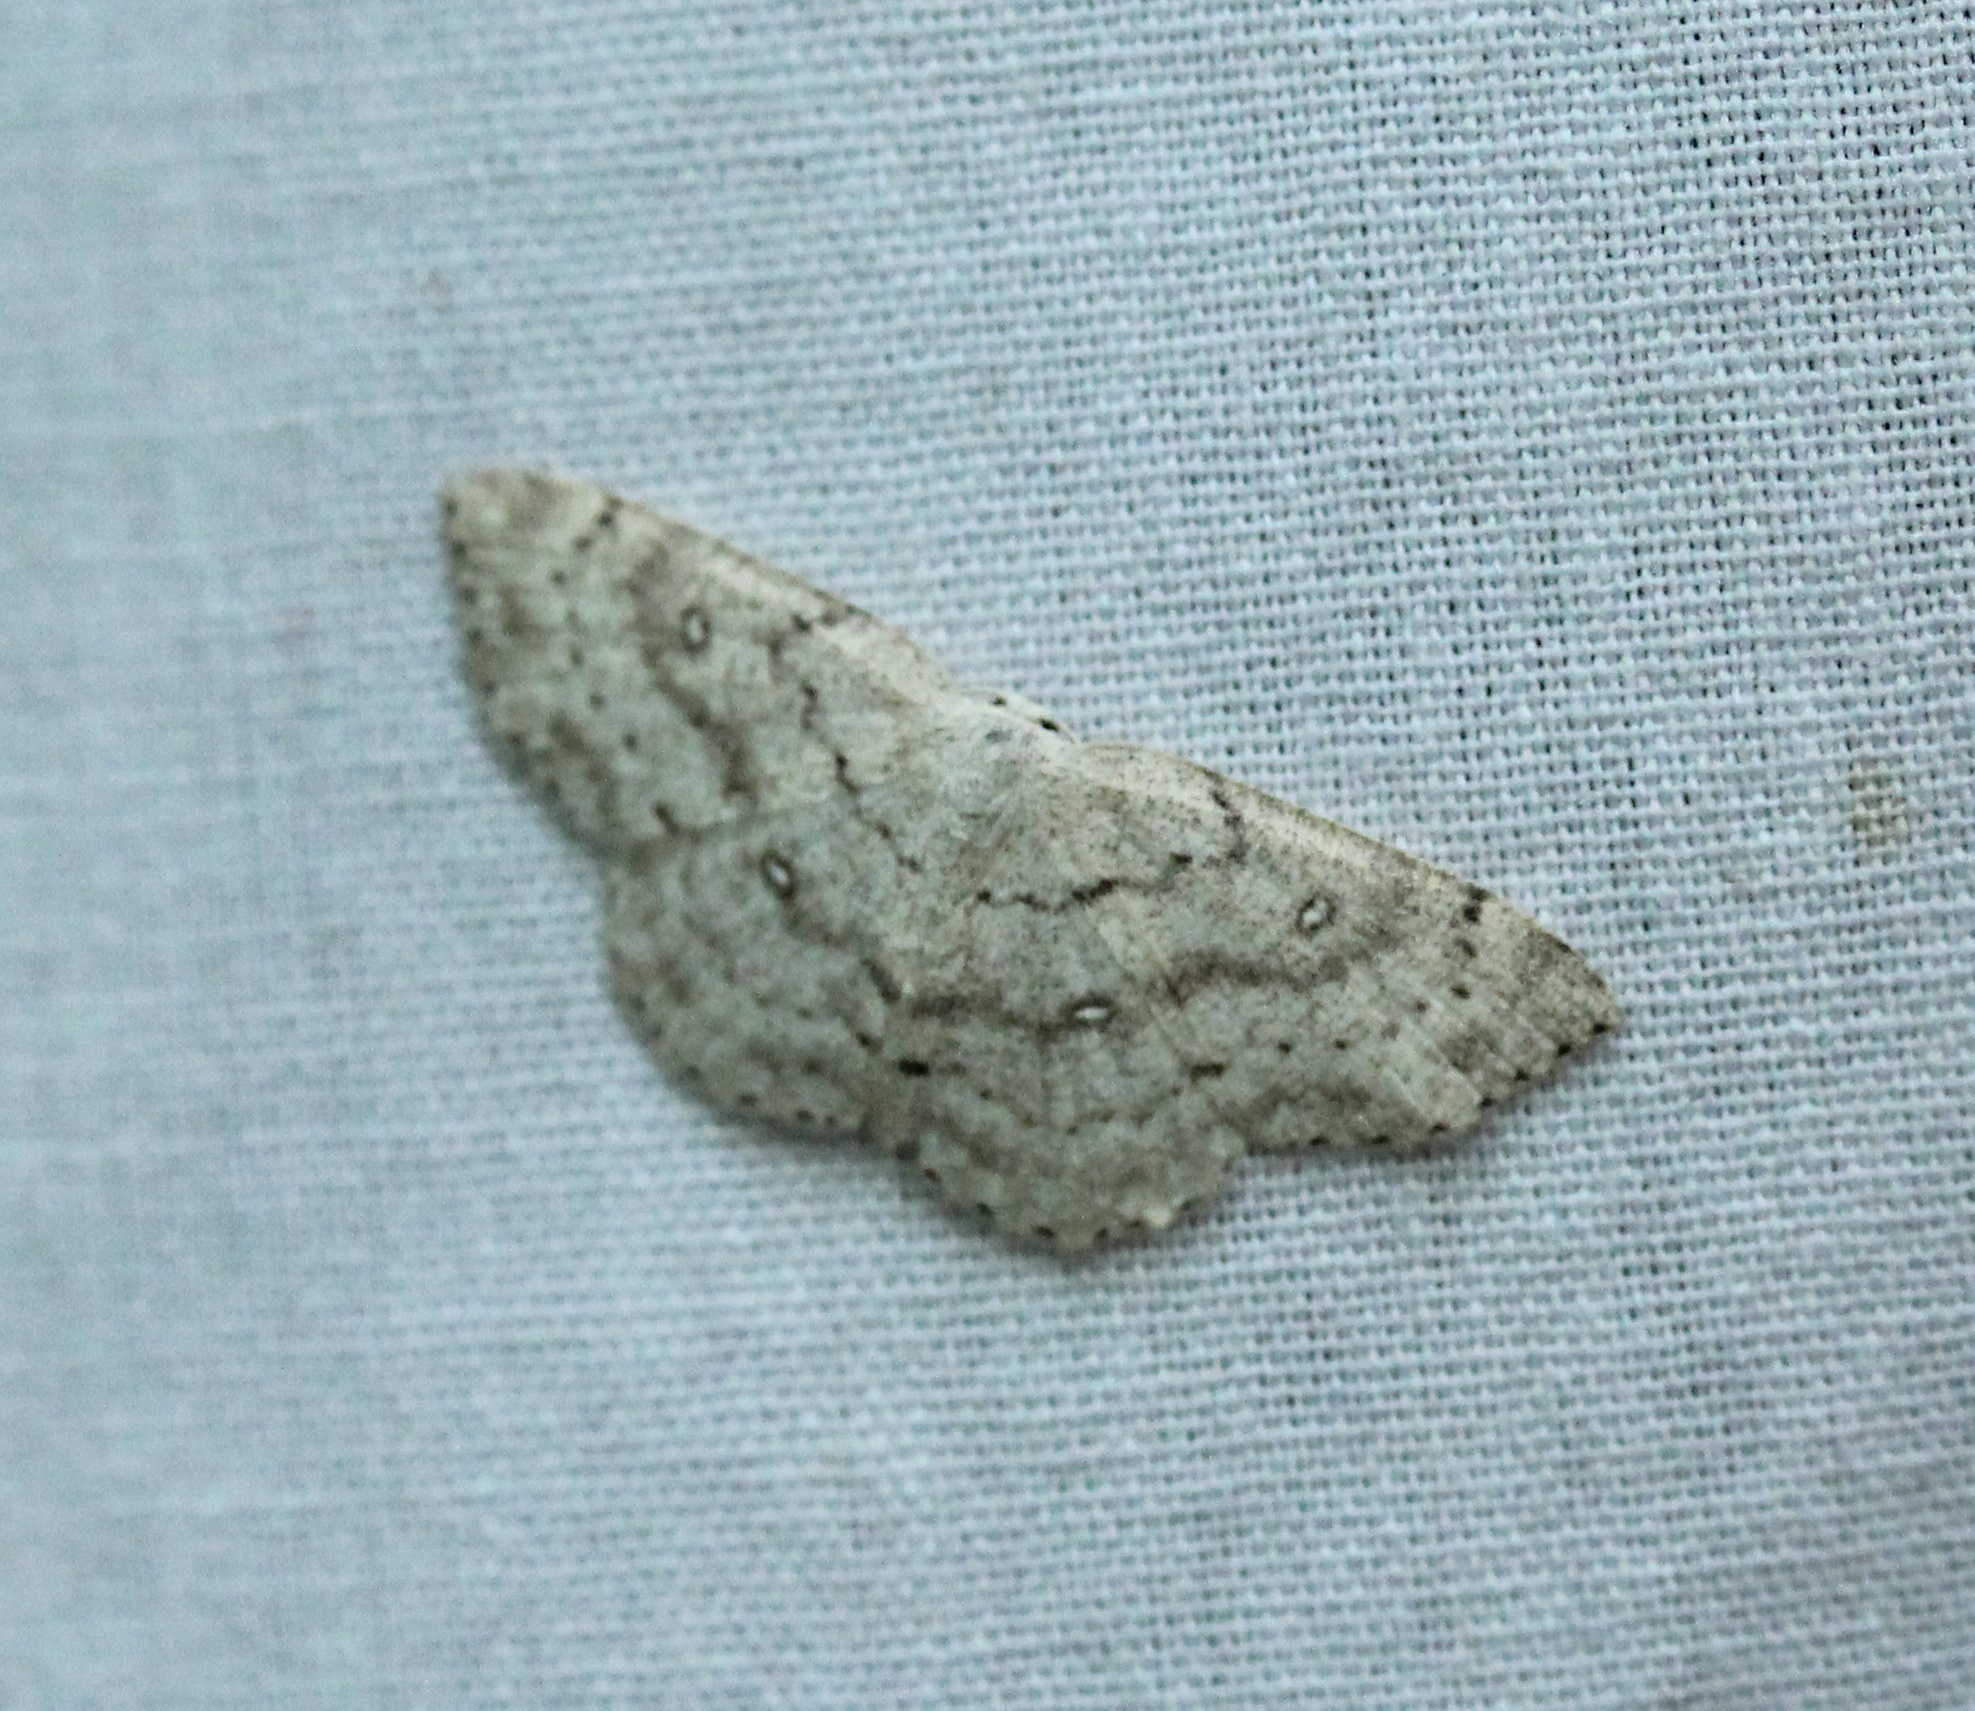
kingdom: Animalia
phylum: Arthropoda
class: Insecta
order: Lepidoptera
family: Geometridae
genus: Cyclophora
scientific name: Cyclophora pendulinaria
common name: Sweet fern geometer
